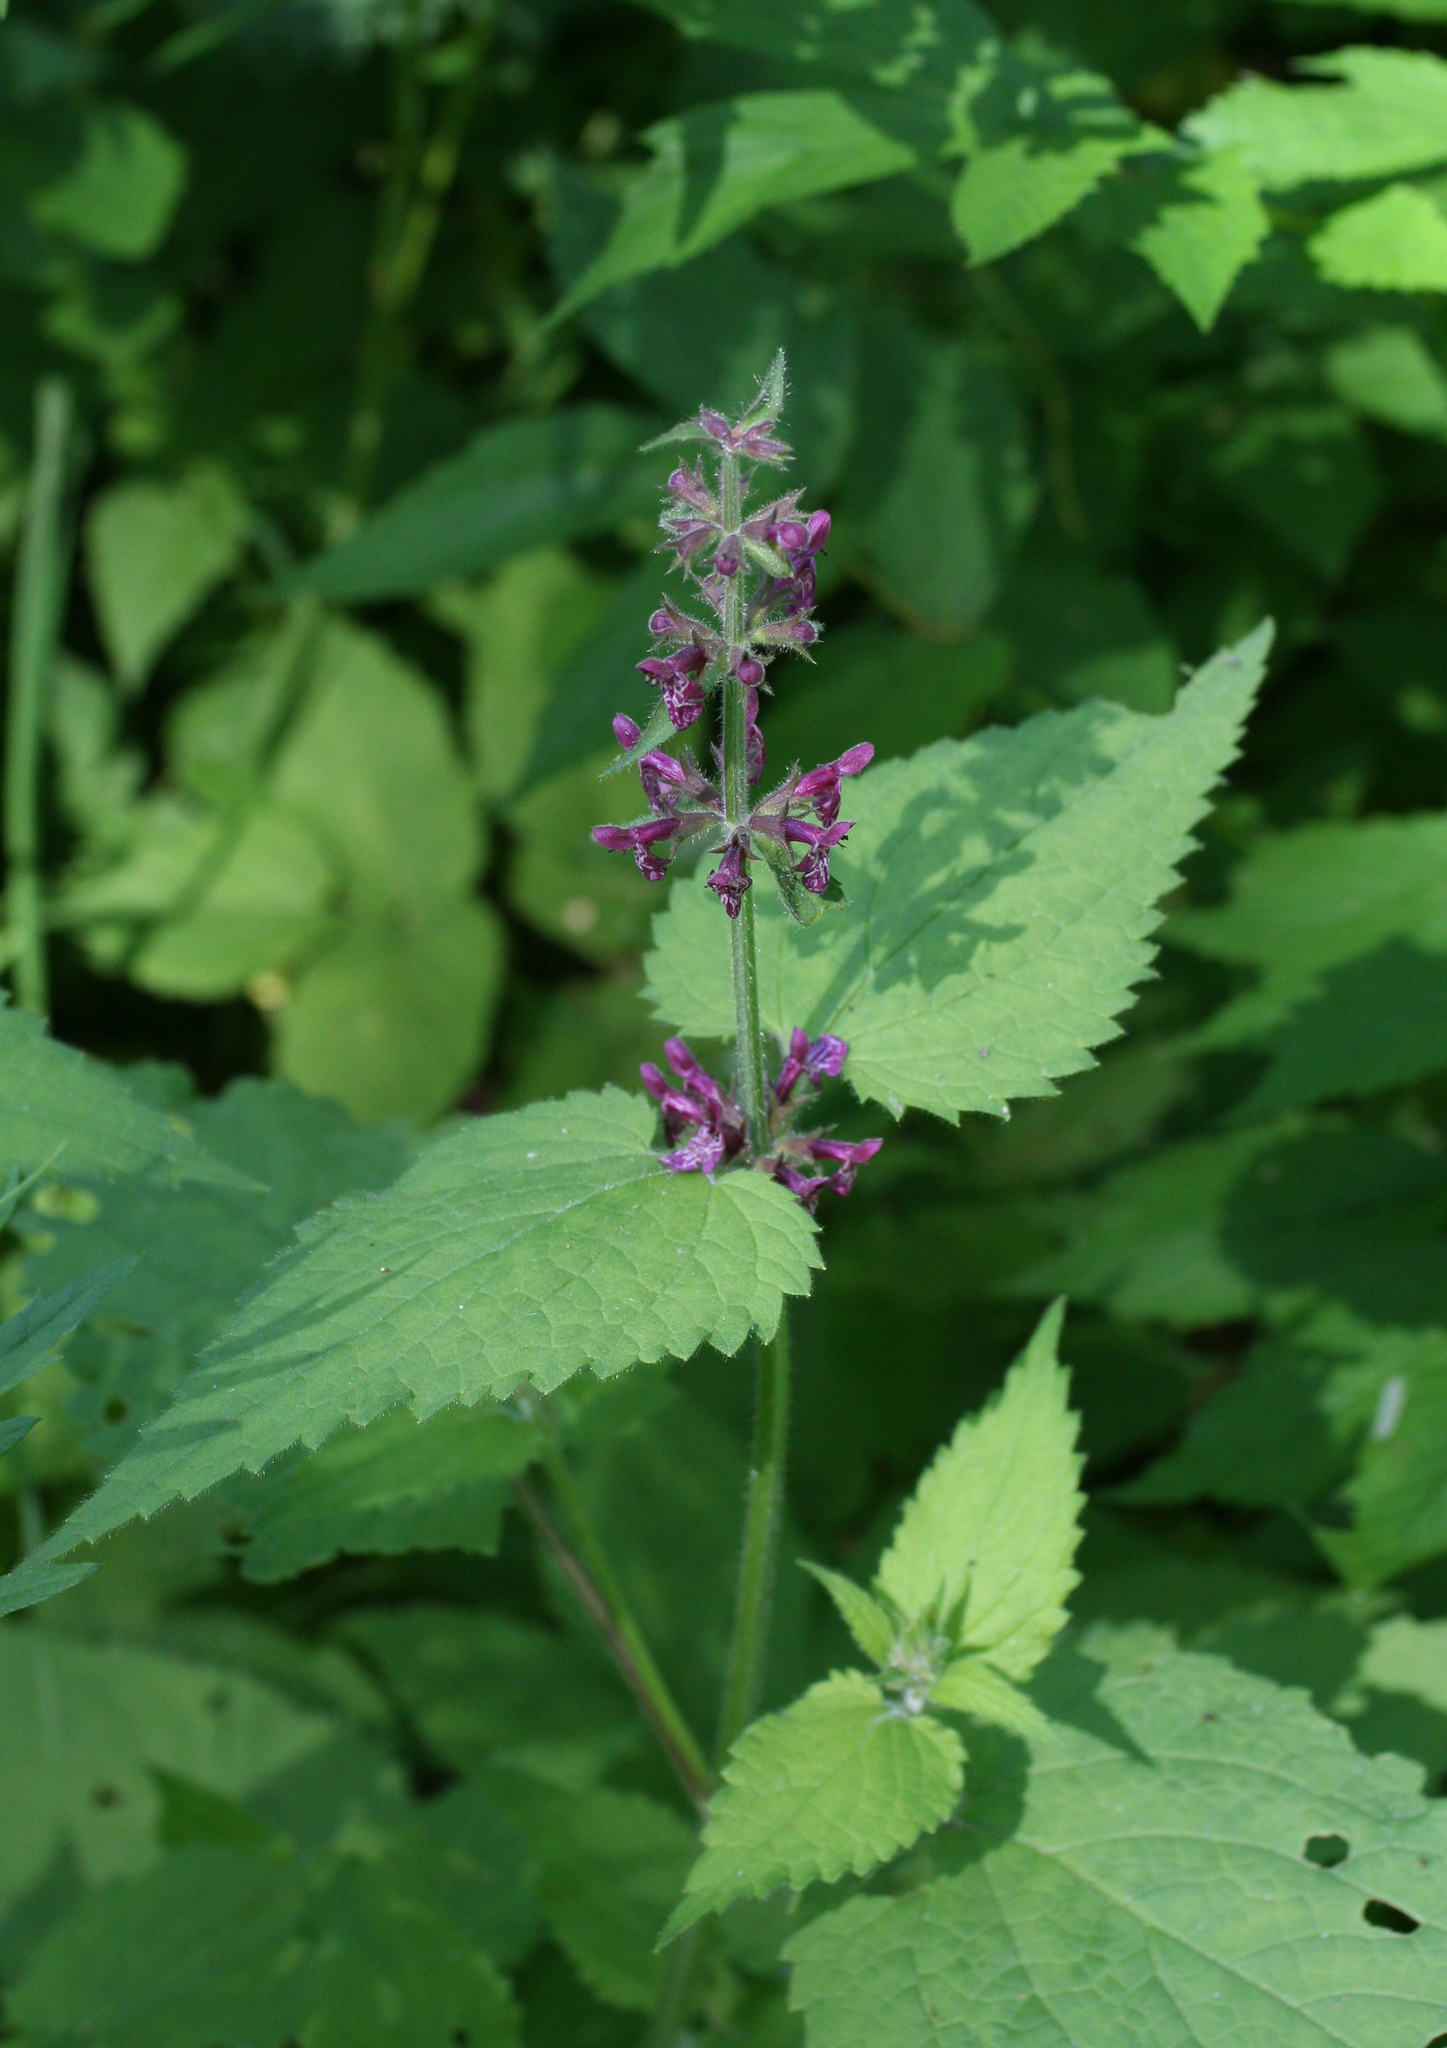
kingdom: Plantae
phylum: Tracheophyta
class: Magnoliopsida
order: Lamiales
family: Lamiaceae
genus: Stachys
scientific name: Stachys sylvatica
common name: Hedge woundwort
